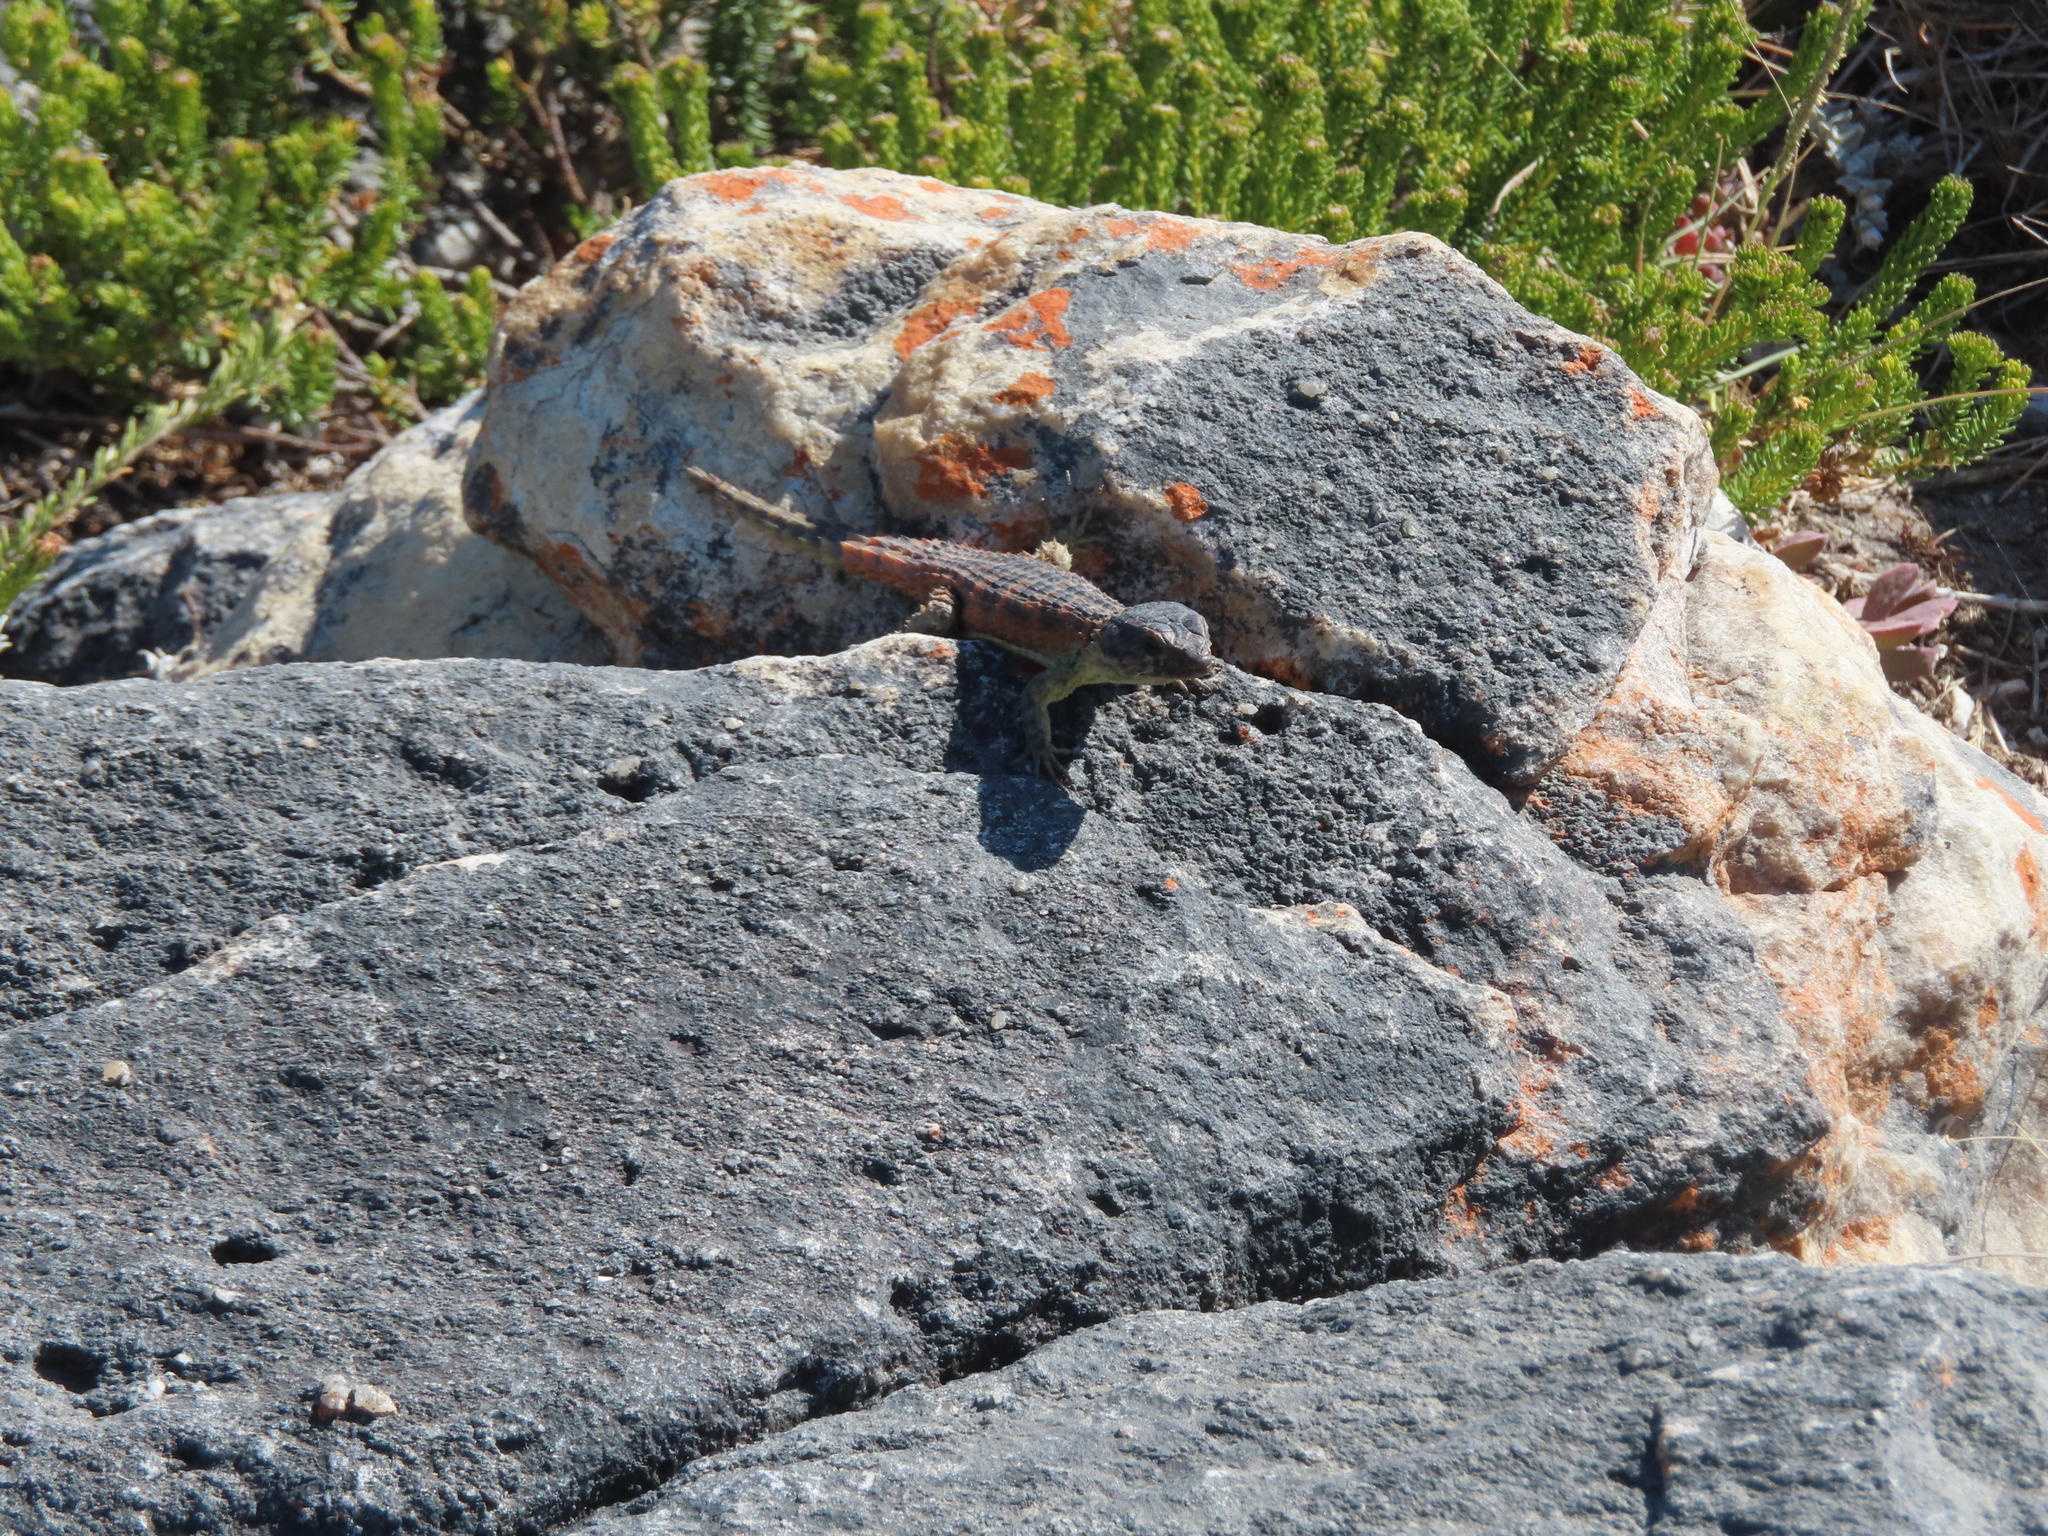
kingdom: Animalia
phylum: Chordata
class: Squamata
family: Cordylidae
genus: Cordylus
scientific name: Cordylus cordylus
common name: Cape girdled lizard
